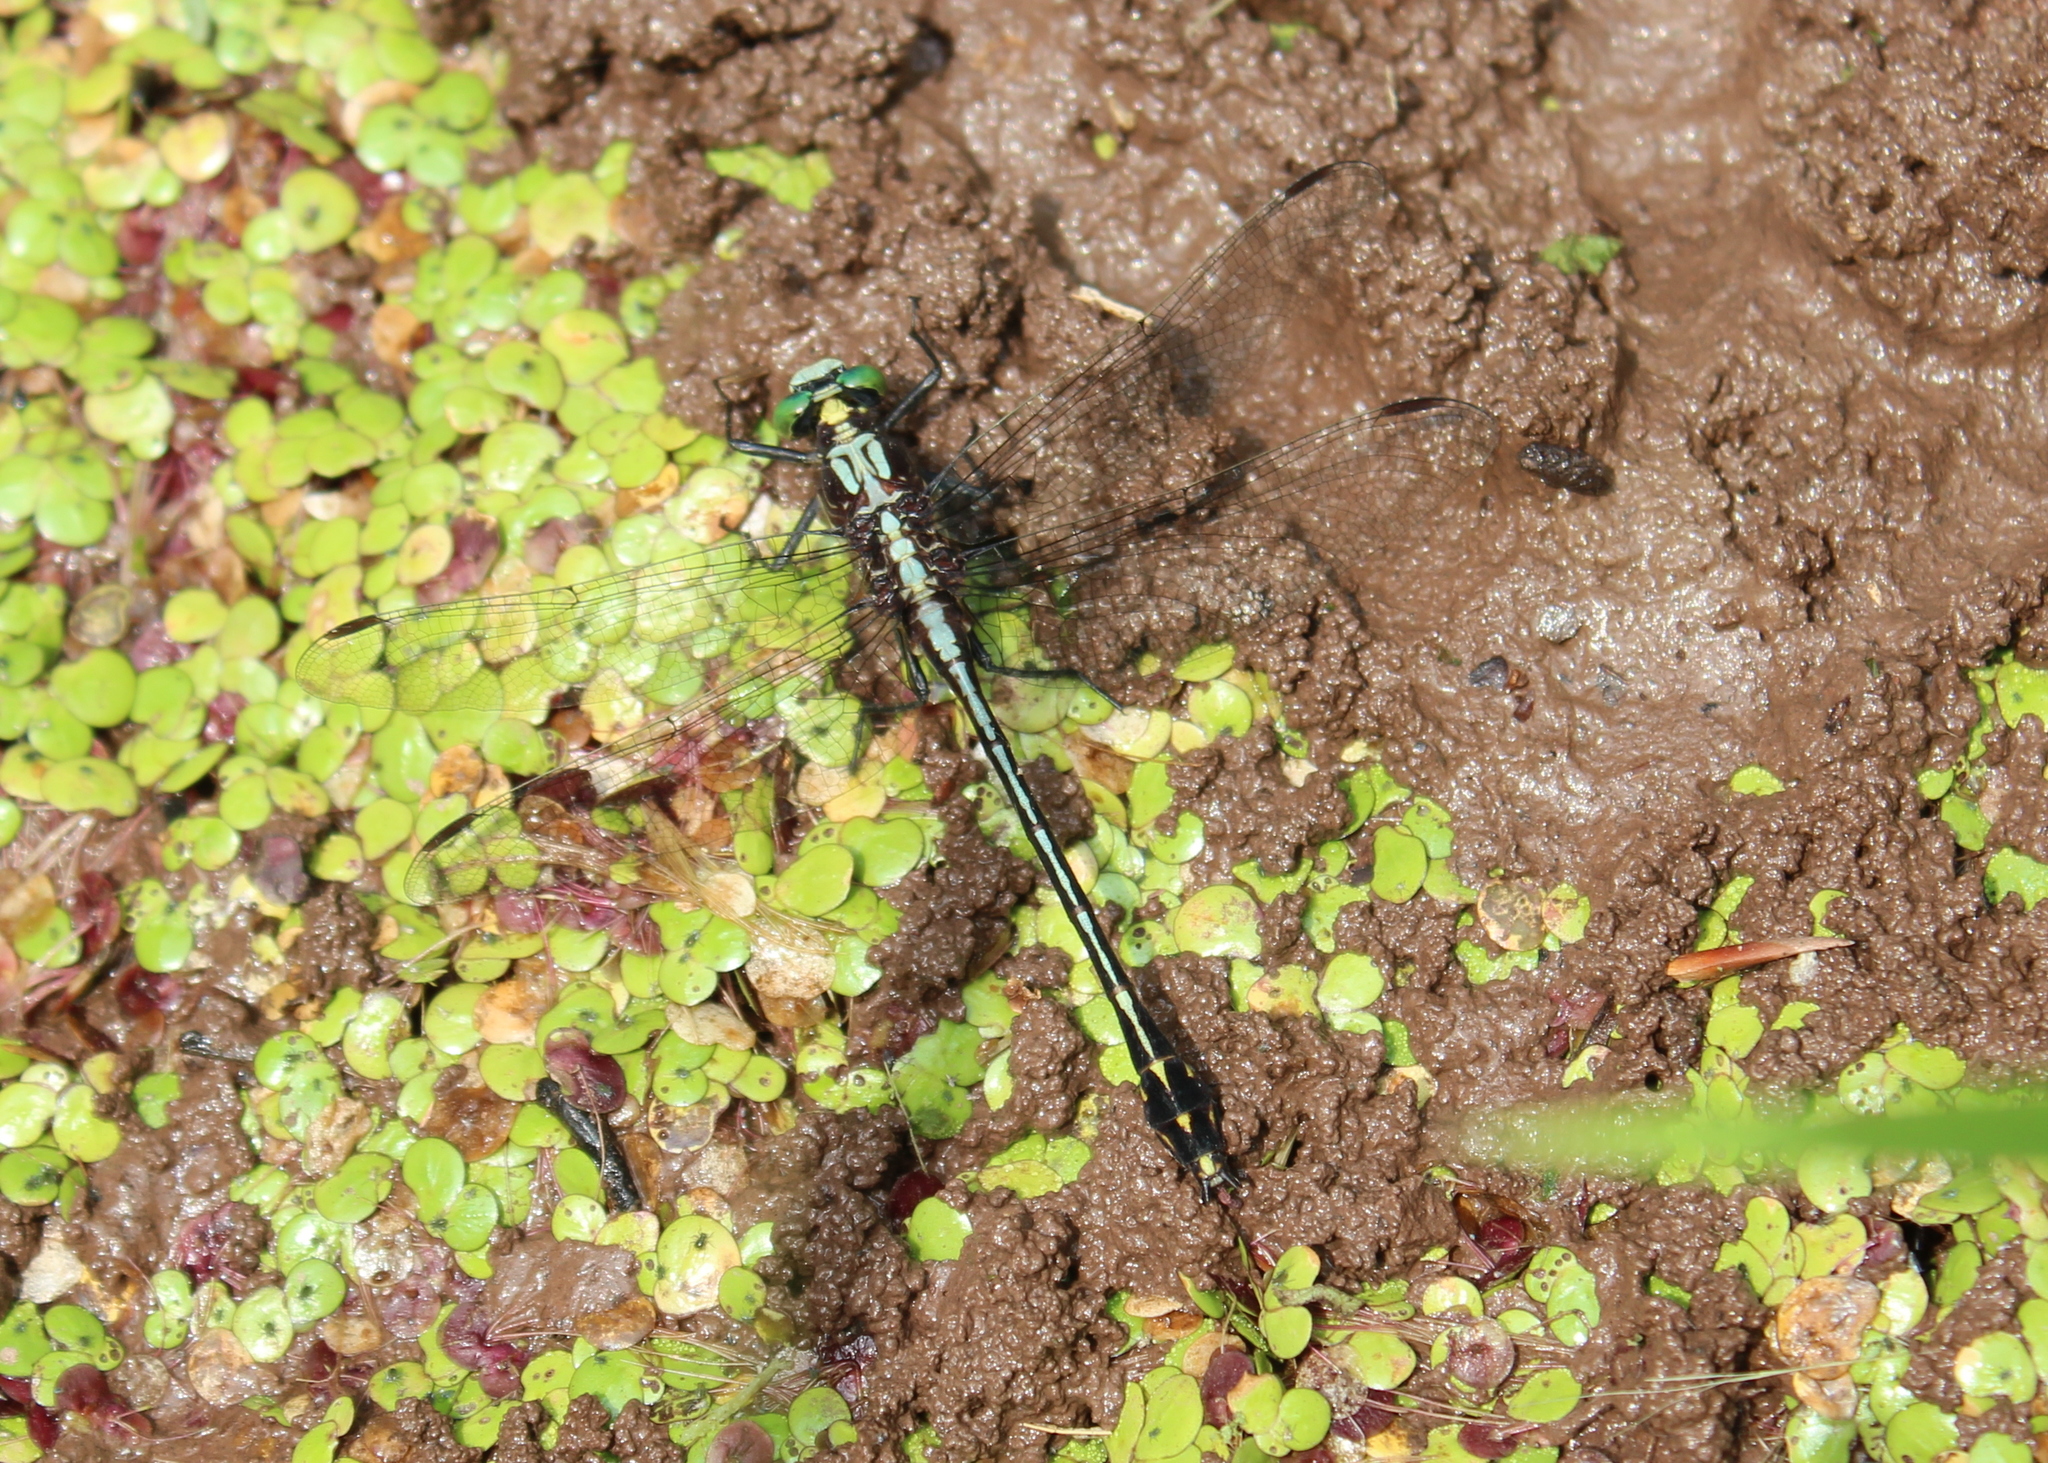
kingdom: Animalia
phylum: Arthropoda
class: Insecta
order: Odonata
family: Gomphidae
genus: Dromogomphus
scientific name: Dromogomphus spinosus
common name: Black-shouldered spinyleg
